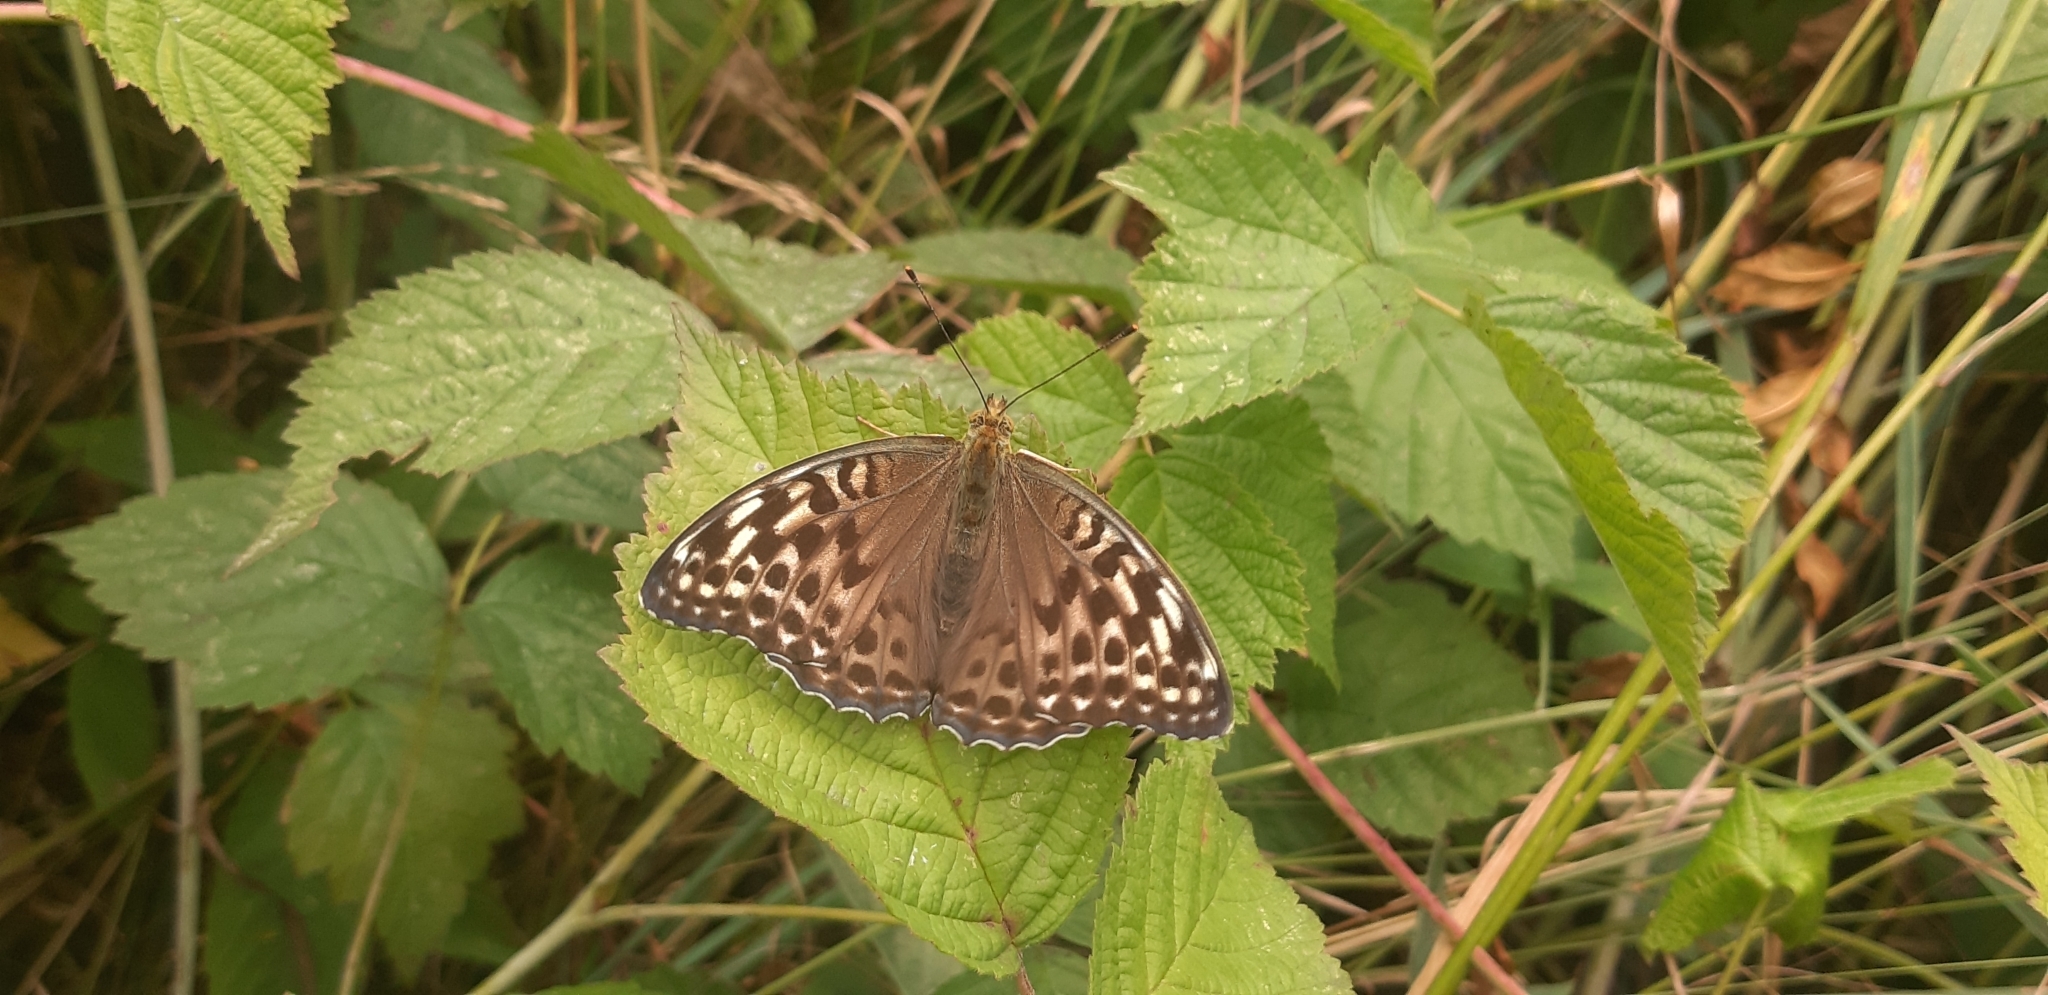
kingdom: Animalia
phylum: Arthropoda
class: Insecta
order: Lepidoptera
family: Nymphalidae
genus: Argynnis
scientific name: Argynnis paphia
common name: Silver-washed fritillary
